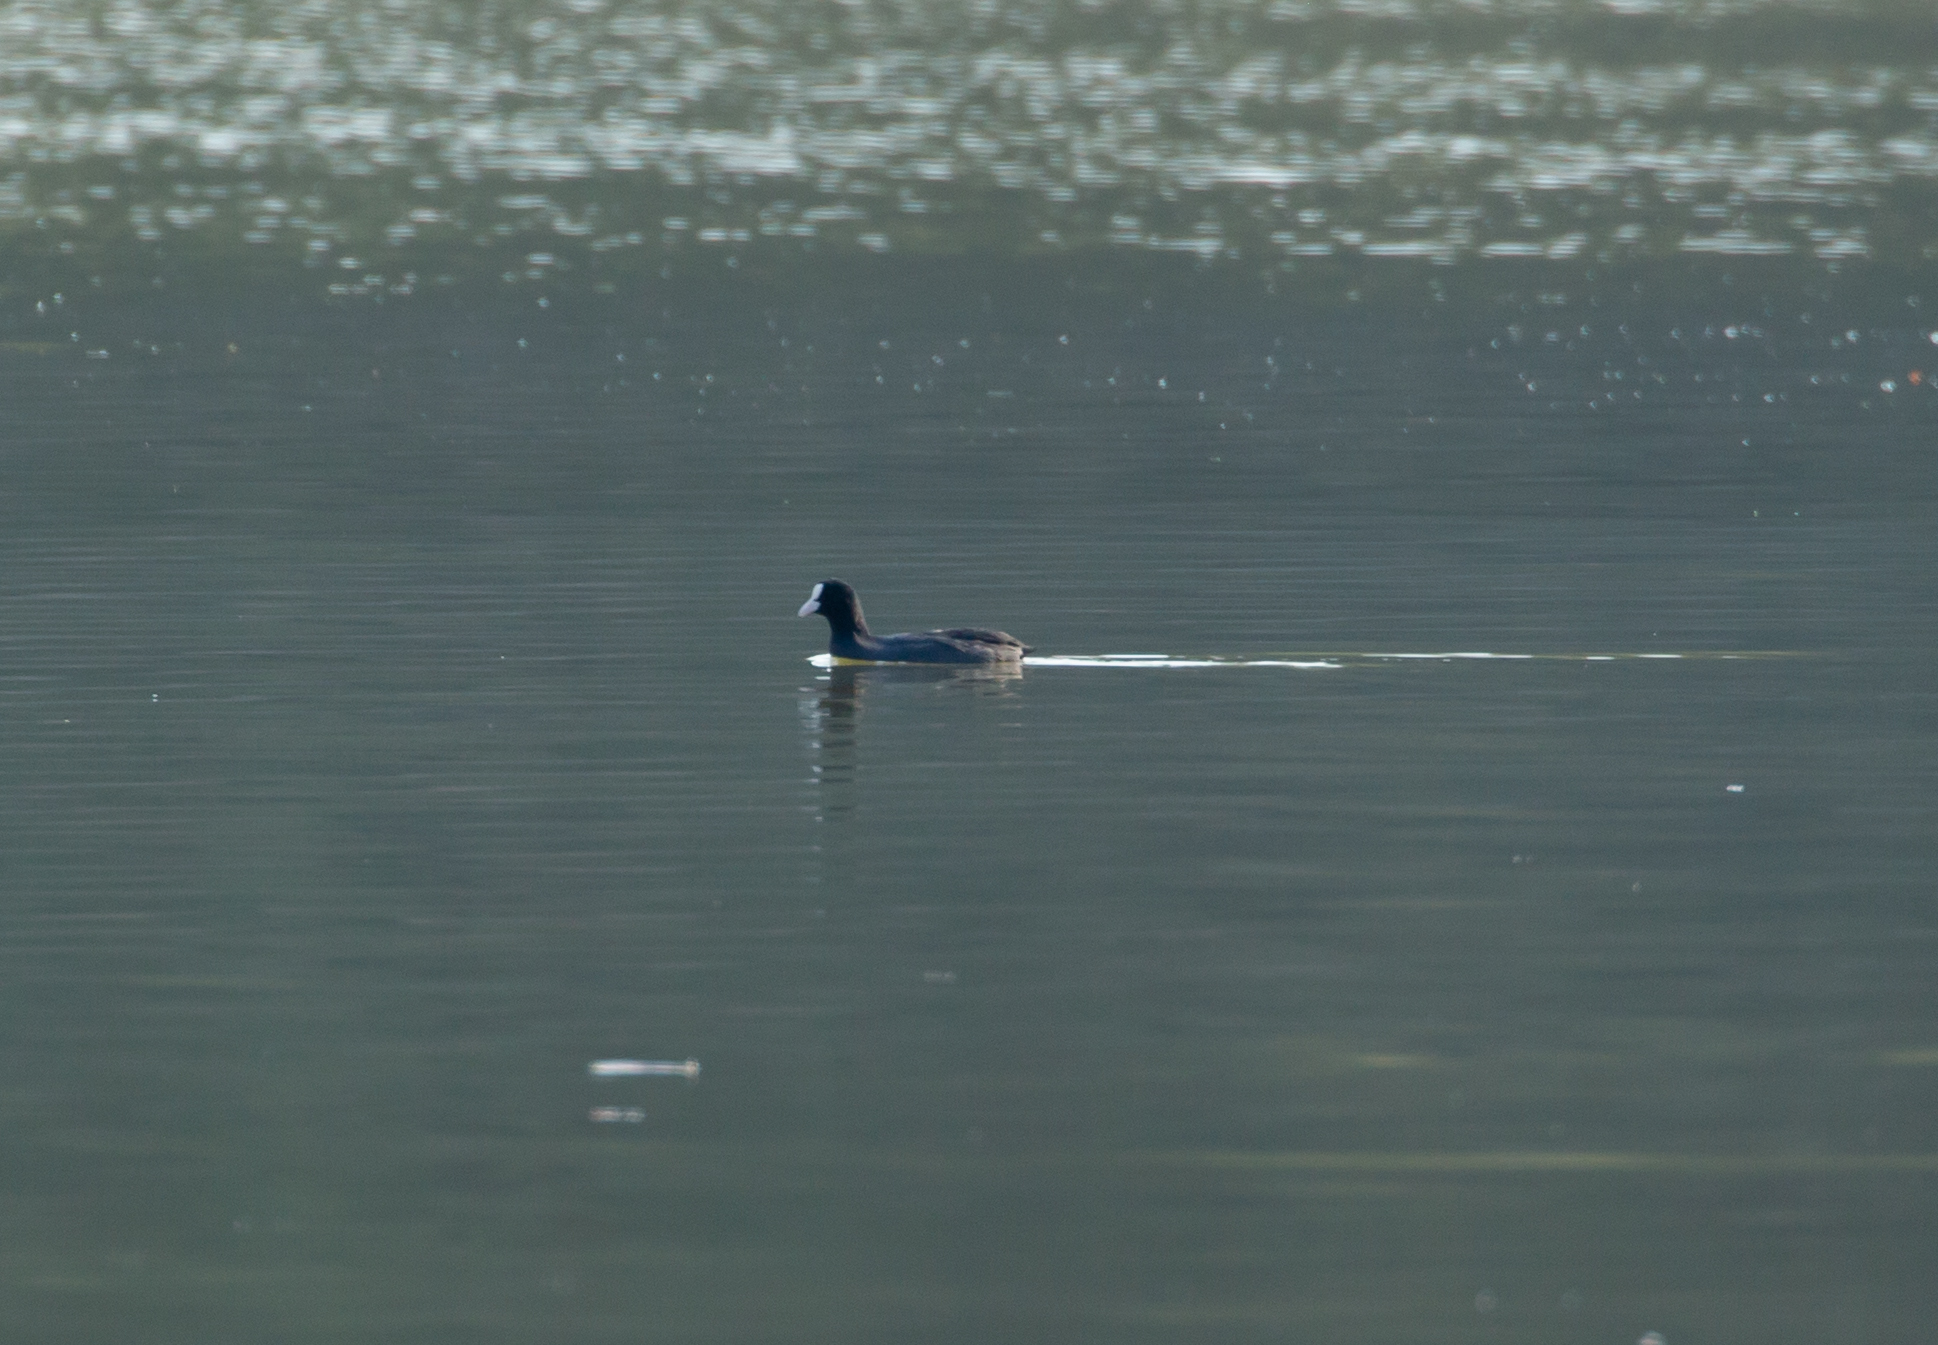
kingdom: Animalia
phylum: Chordata
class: Aves
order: Gruiformes
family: Rallidae
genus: Fulica
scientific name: Fulica atra
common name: Eurasian coot
